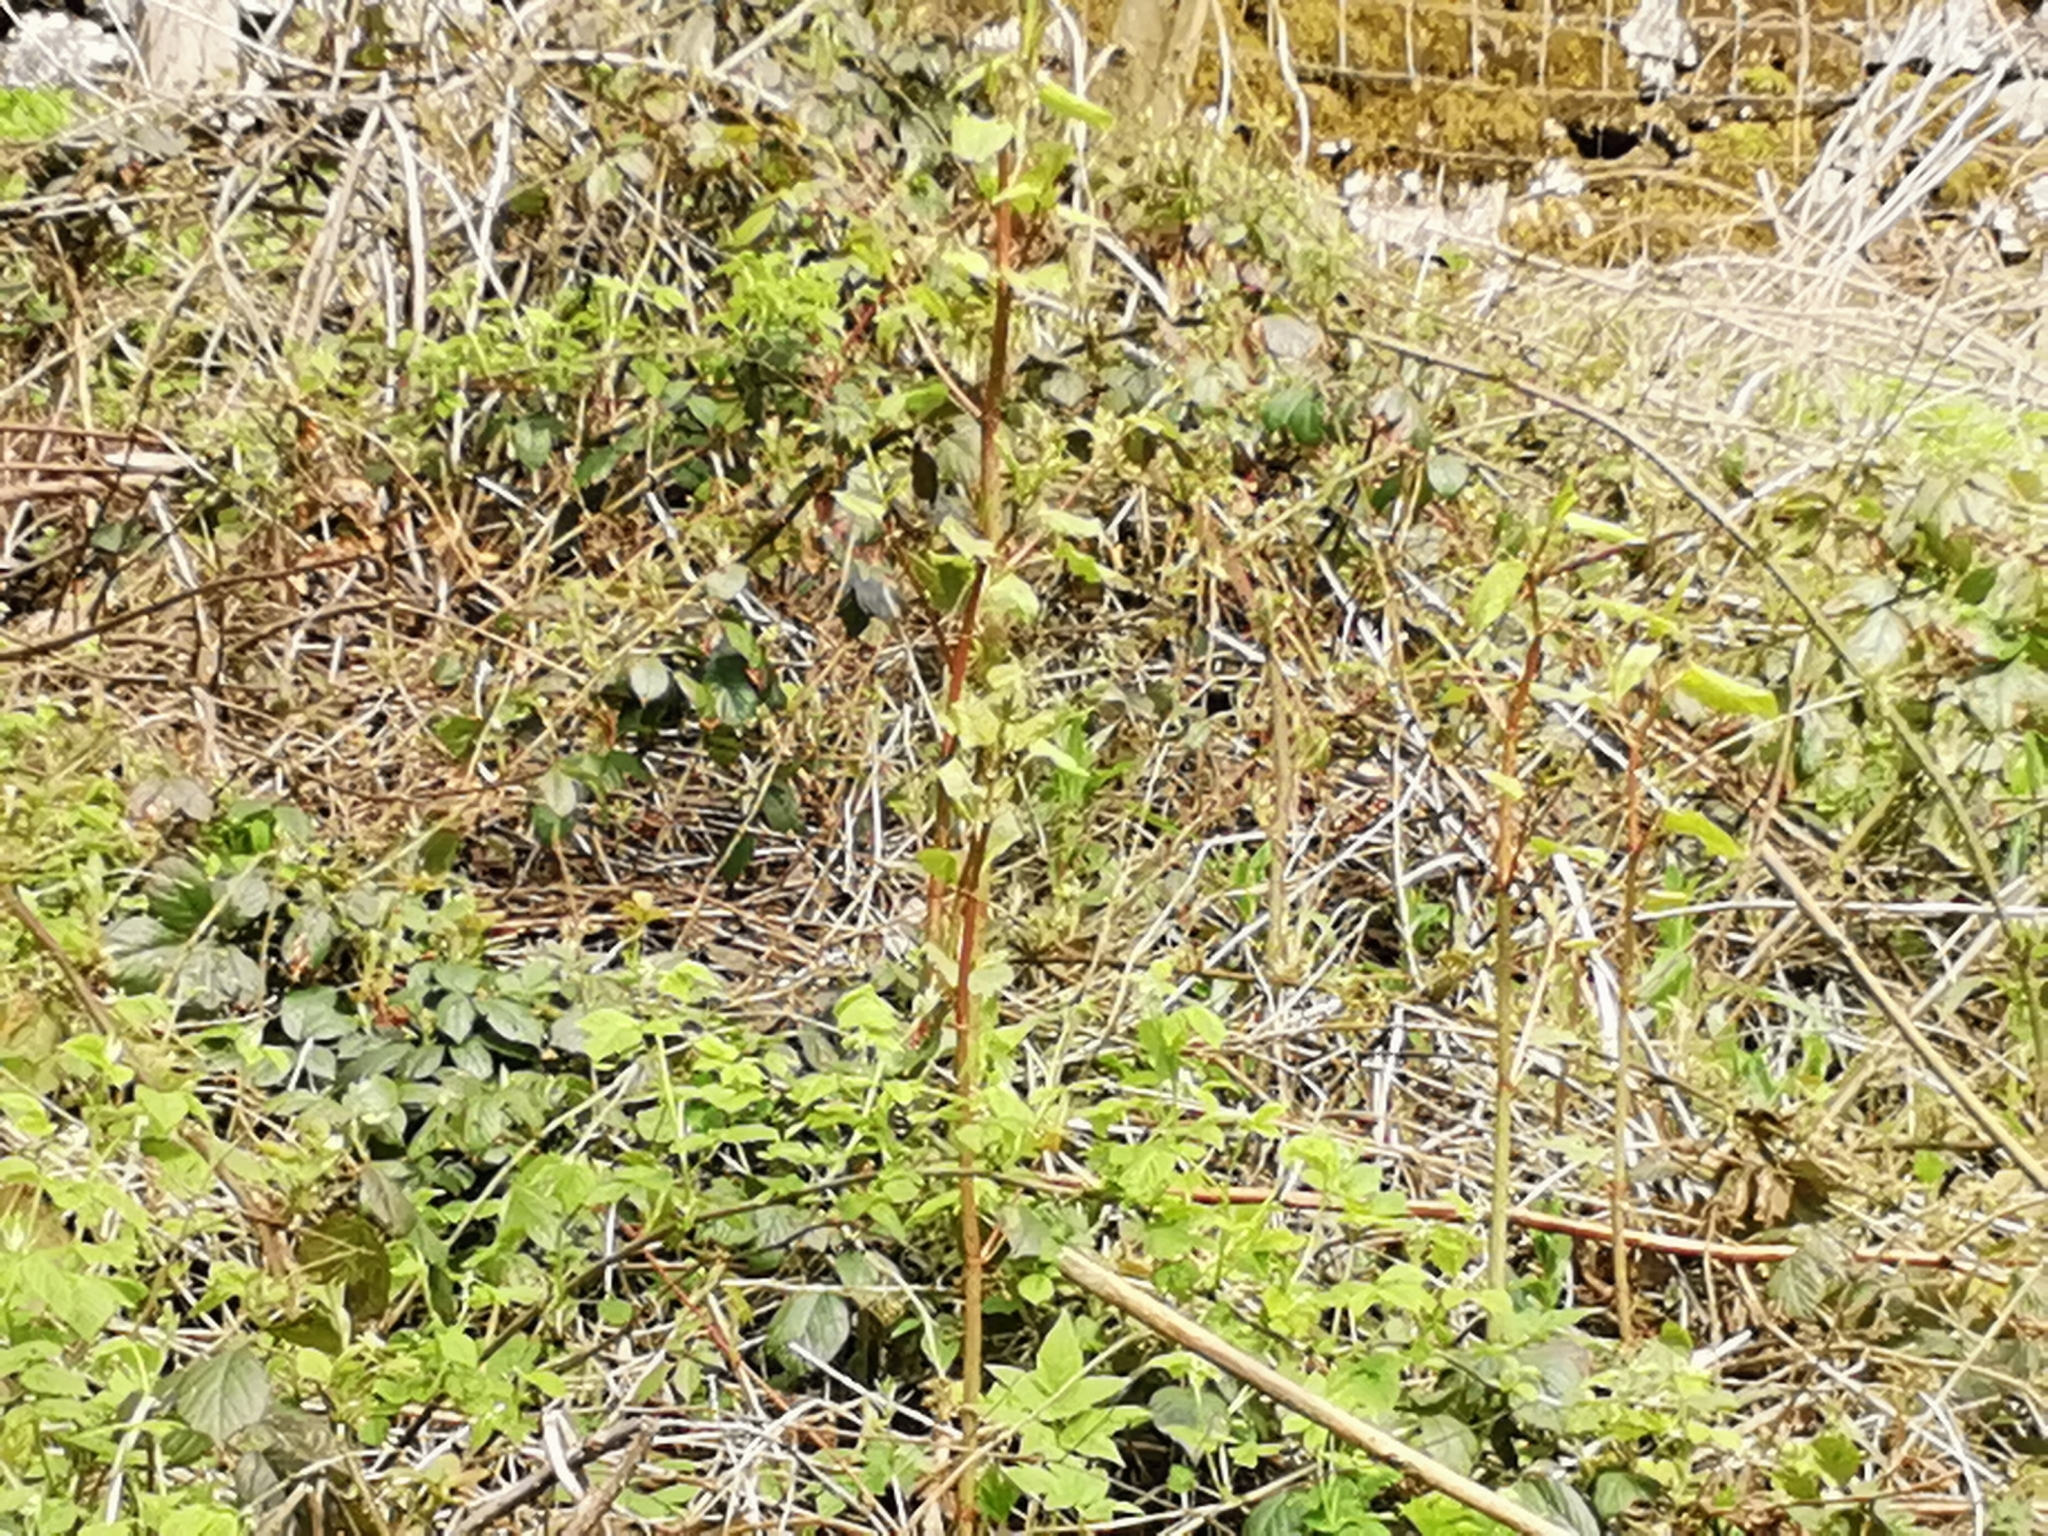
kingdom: Plantae
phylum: Tracheophyta
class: Magnoliopsida
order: Caryophyllales
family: Polygonaceae
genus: Reynoutria
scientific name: Reynoutria japonica
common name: Japanese knotweed
